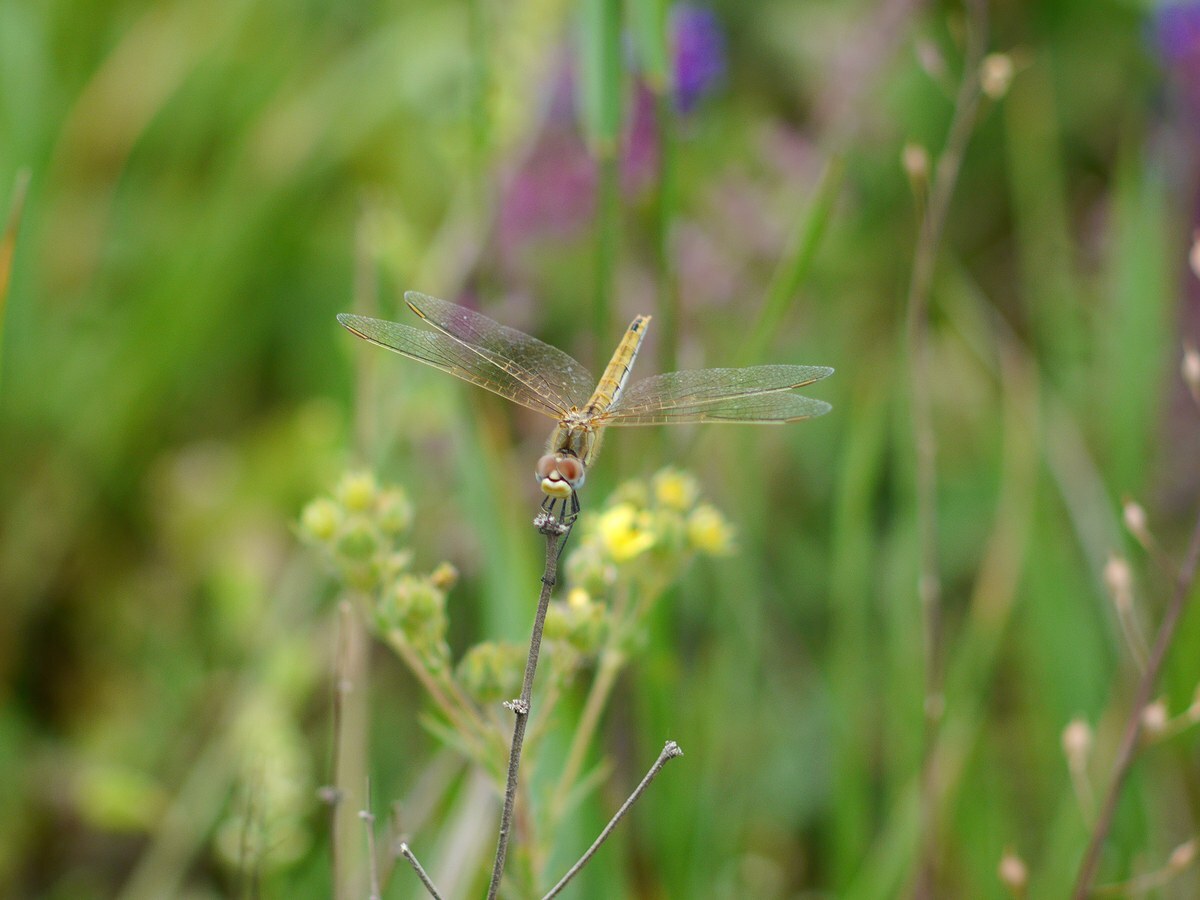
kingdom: Animalia
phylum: Arthropoda
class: Insecta
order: Odonata
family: Libellulidae
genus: Sympetrum
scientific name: Sympetrum fonscolombii
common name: Red-veined darter
